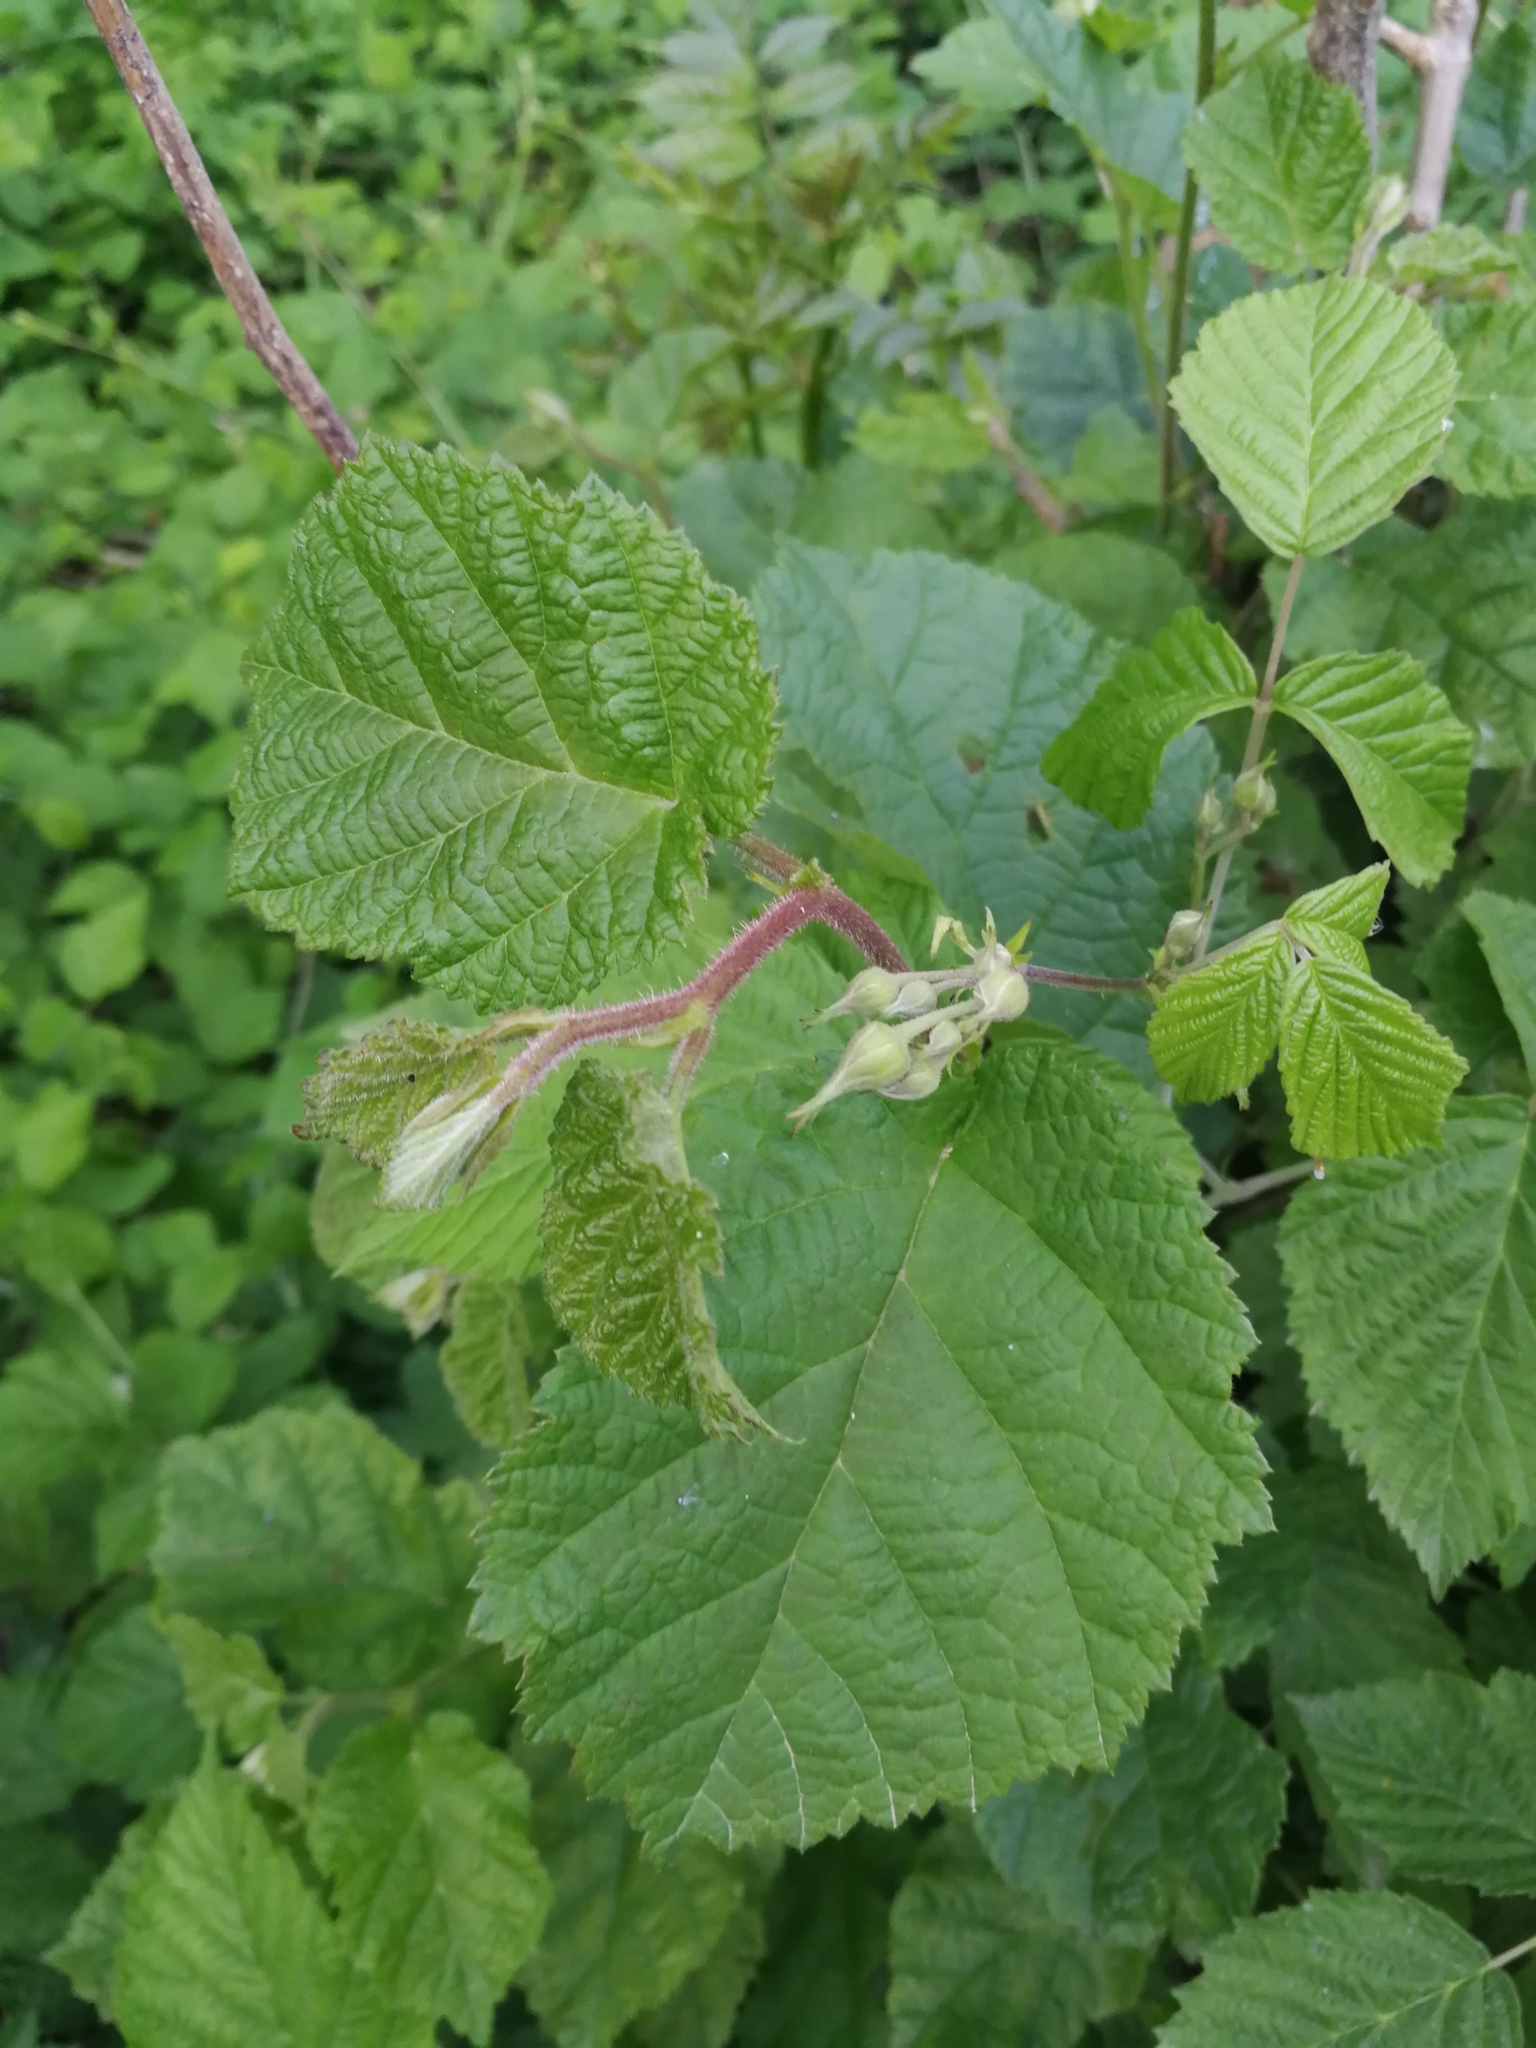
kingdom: Plantae
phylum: Tracheophyta
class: Magnoliopsida
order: Fagales
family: Betulaceae
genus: Corylus
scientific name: Corylus avellana
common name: European hazel
